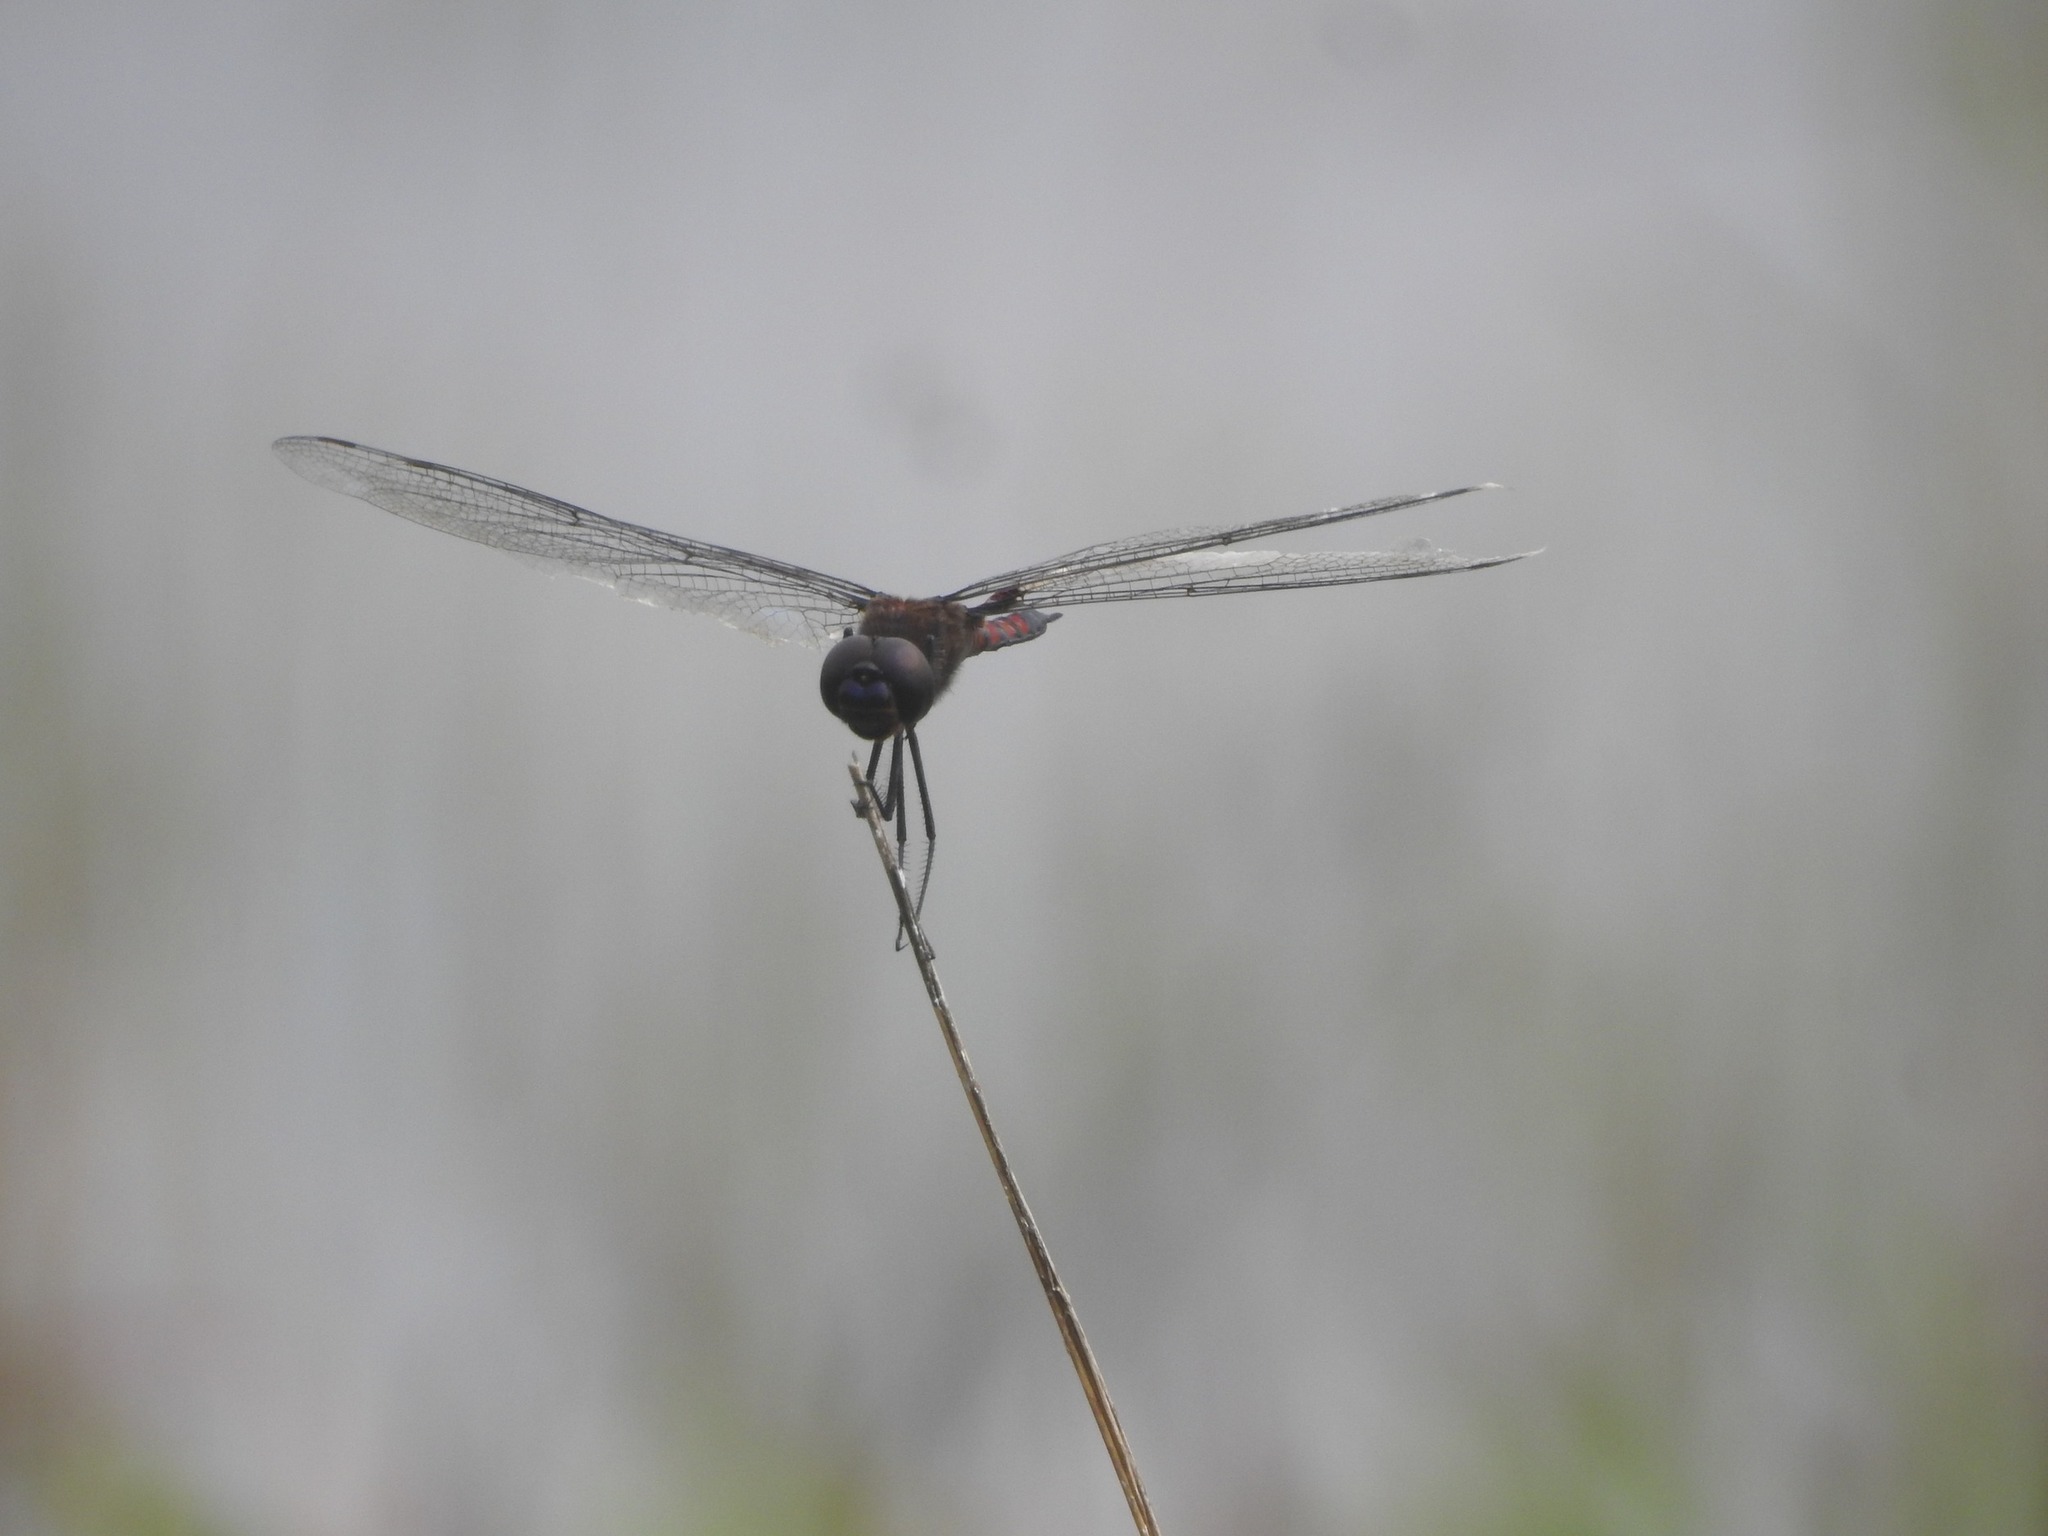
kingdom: Animalia
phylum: Arthropoda
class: Insecta
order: Odonata
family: Libellulidae
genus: Tramea
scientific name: Tramea limbata
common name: Ferruginous glider
